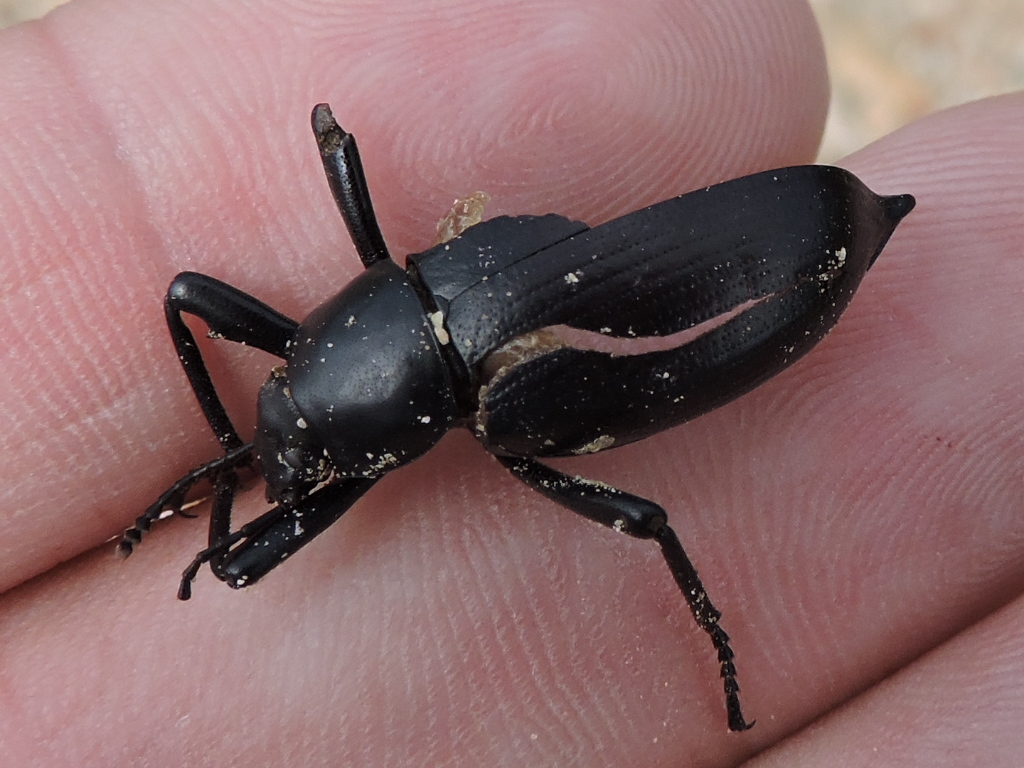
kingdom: Animalia
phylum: Arthropoda
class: Insecta
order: Coleoptera
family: Tenebrionidae
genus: Eleodes
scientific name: Eleodes spinipes
